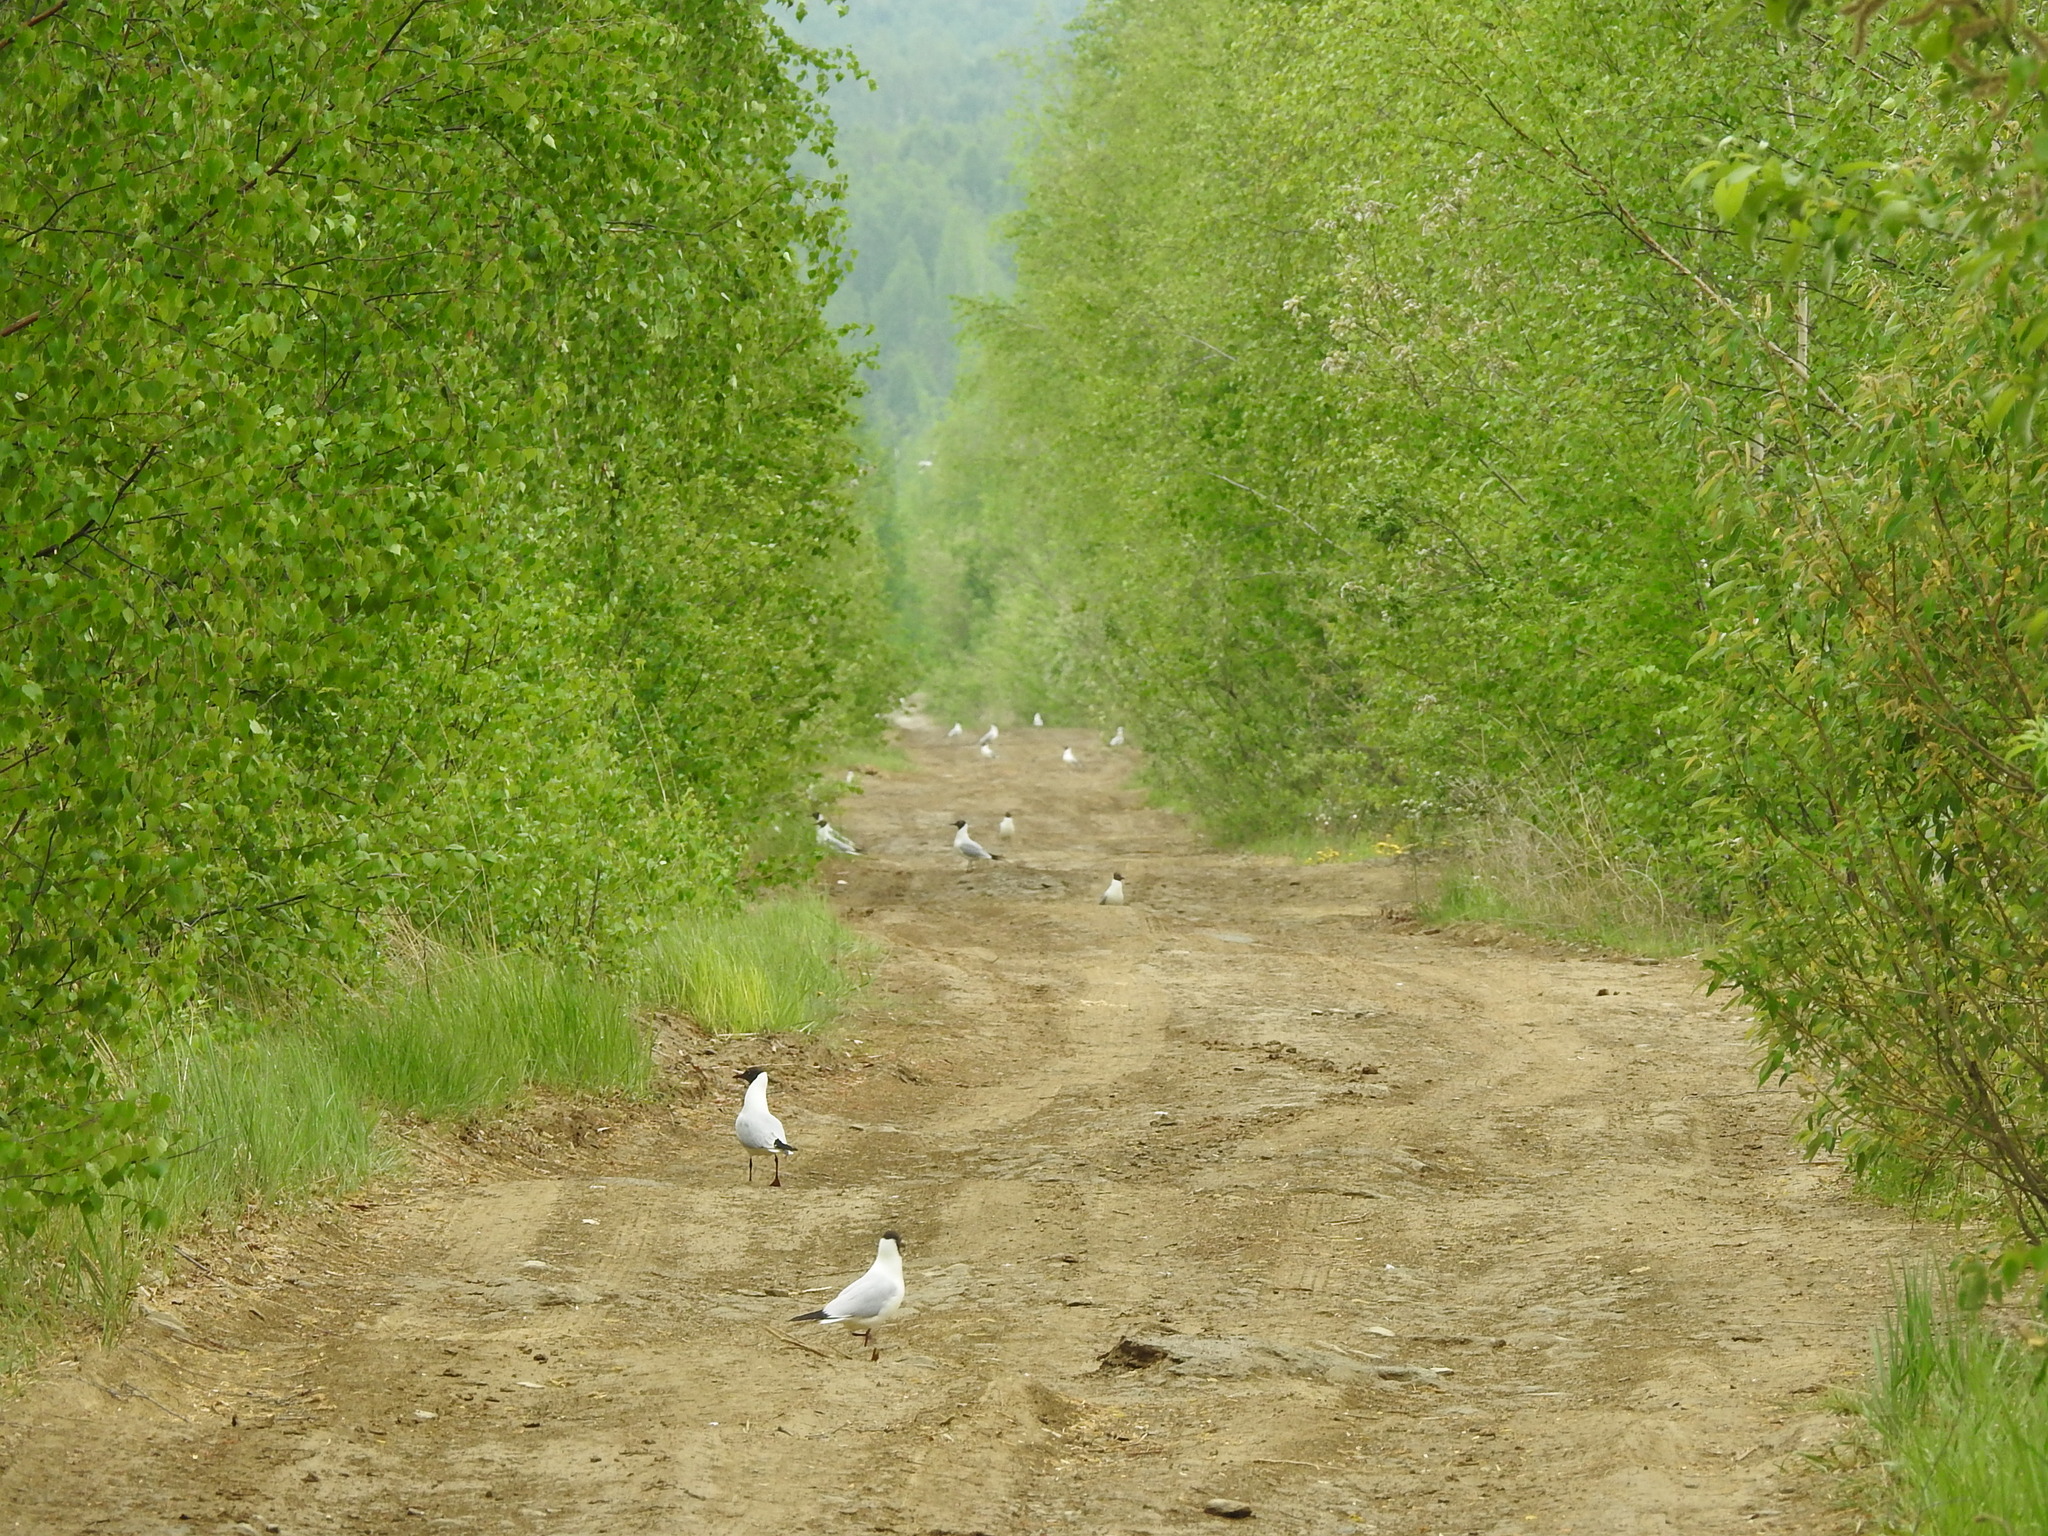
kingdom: Animalia
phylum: Chordata
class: Aves
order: Charadriiformes
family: Laridae
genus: Chroicocephalus
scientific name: Chroicocephalus ridibundus
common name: Black-headed gull
